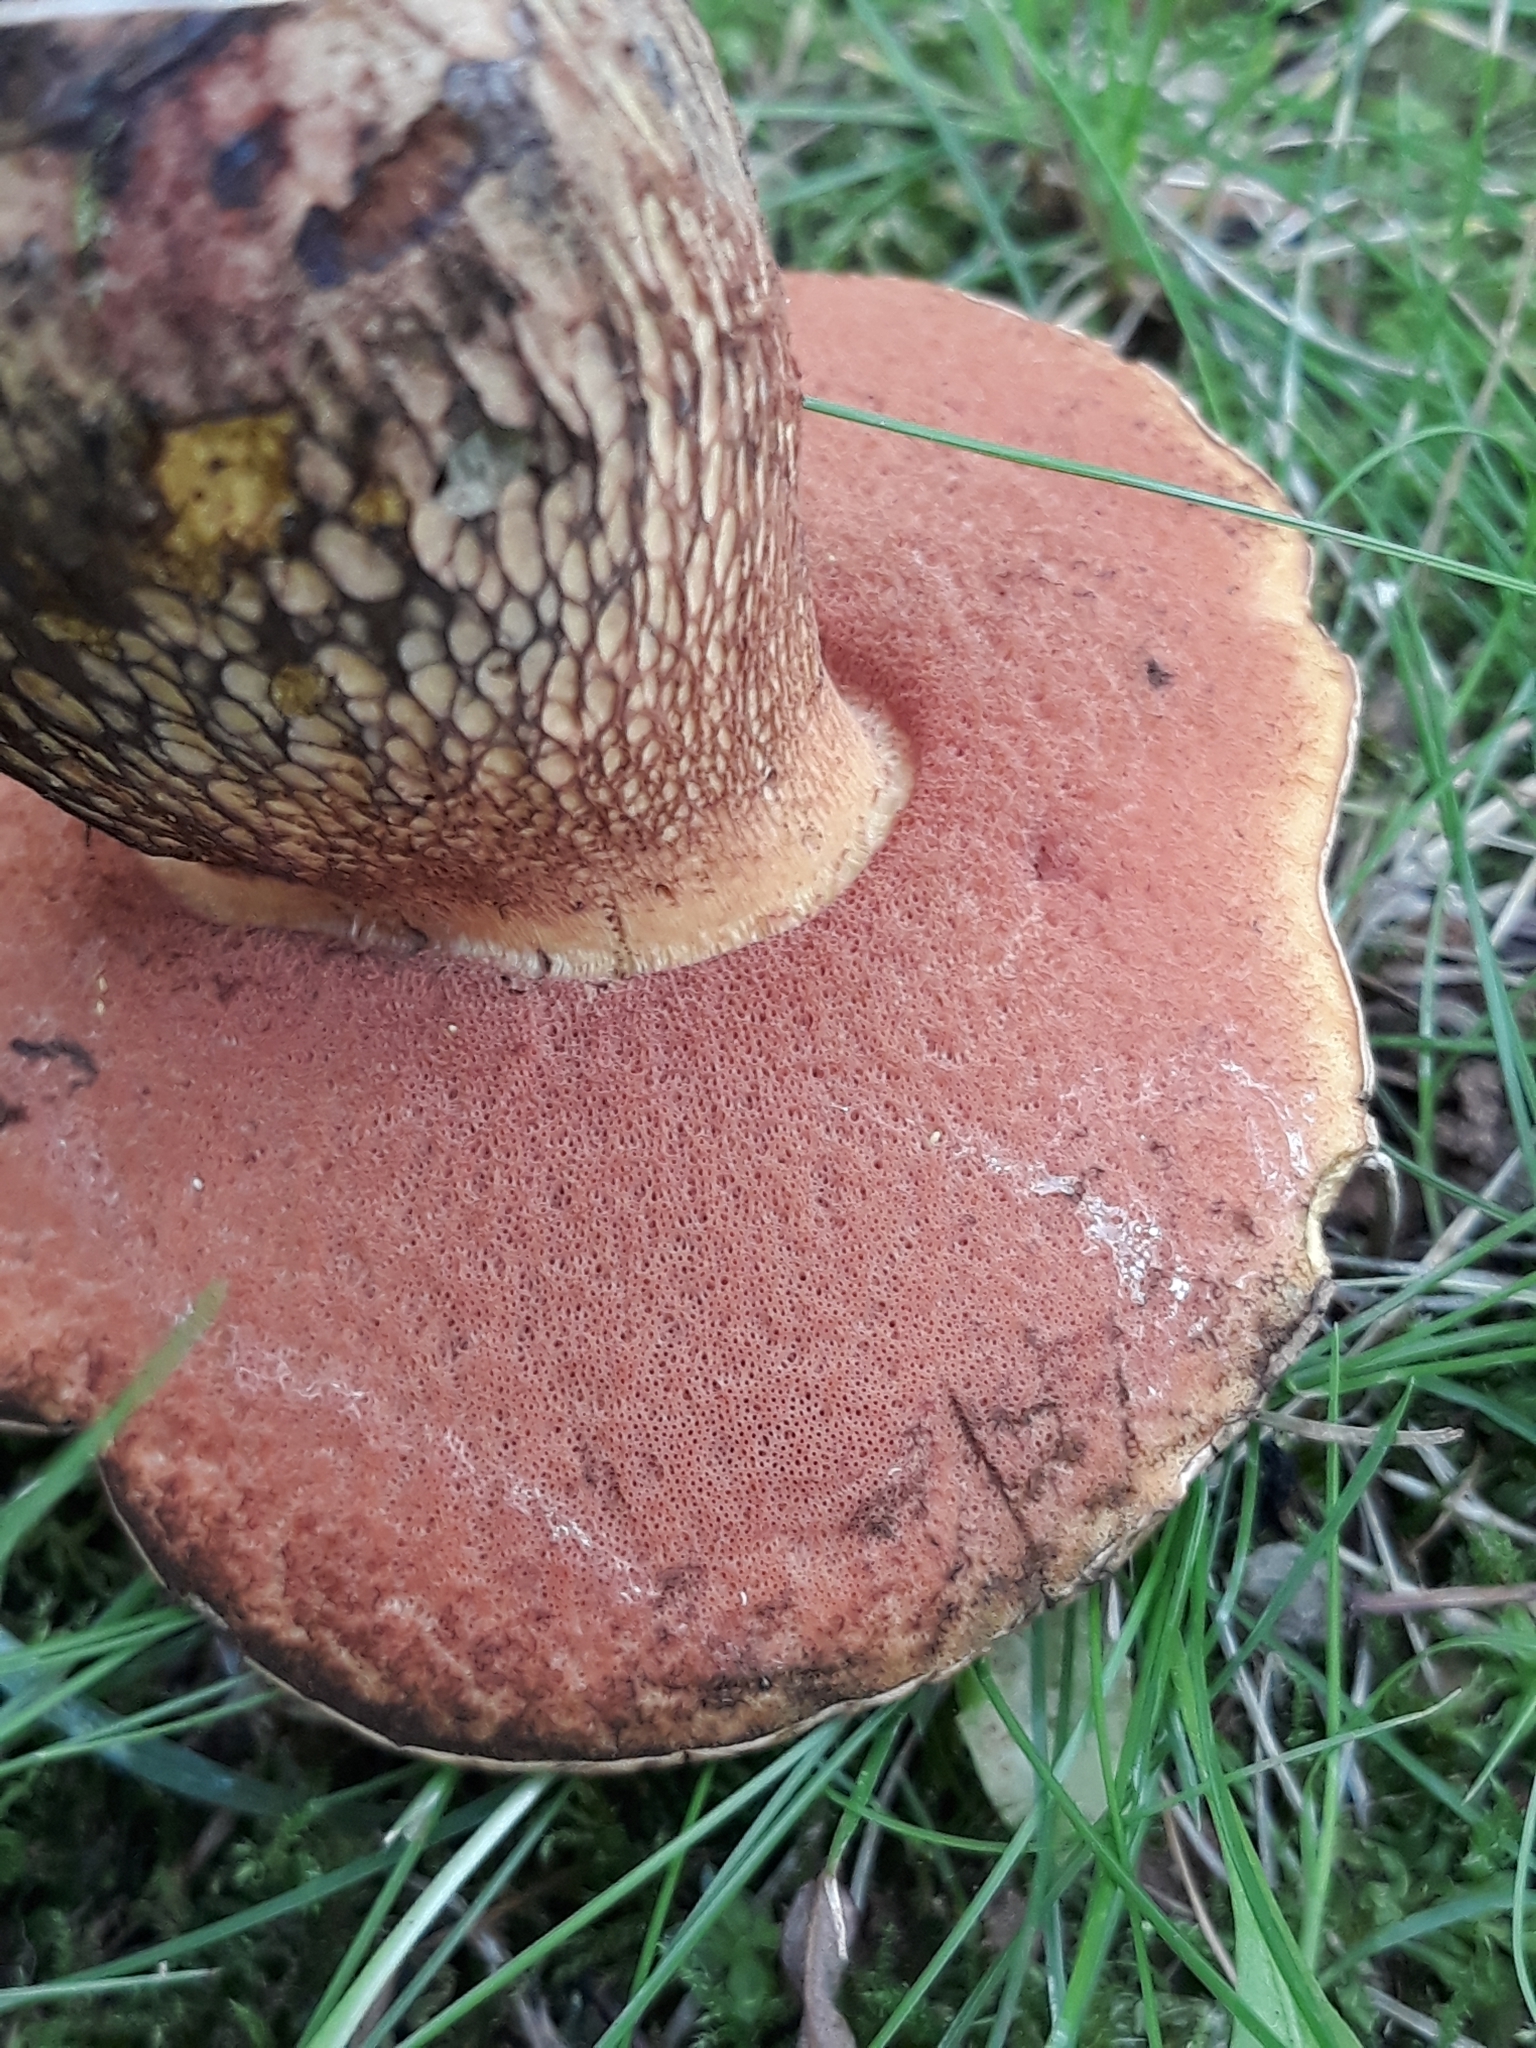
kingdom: Fungi
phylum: Basidiomycota
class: Agaricomycetes
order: Boletales
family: Boletaceae
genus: Suillellus
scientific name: Suillellus luridus
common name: Lurid bolete
